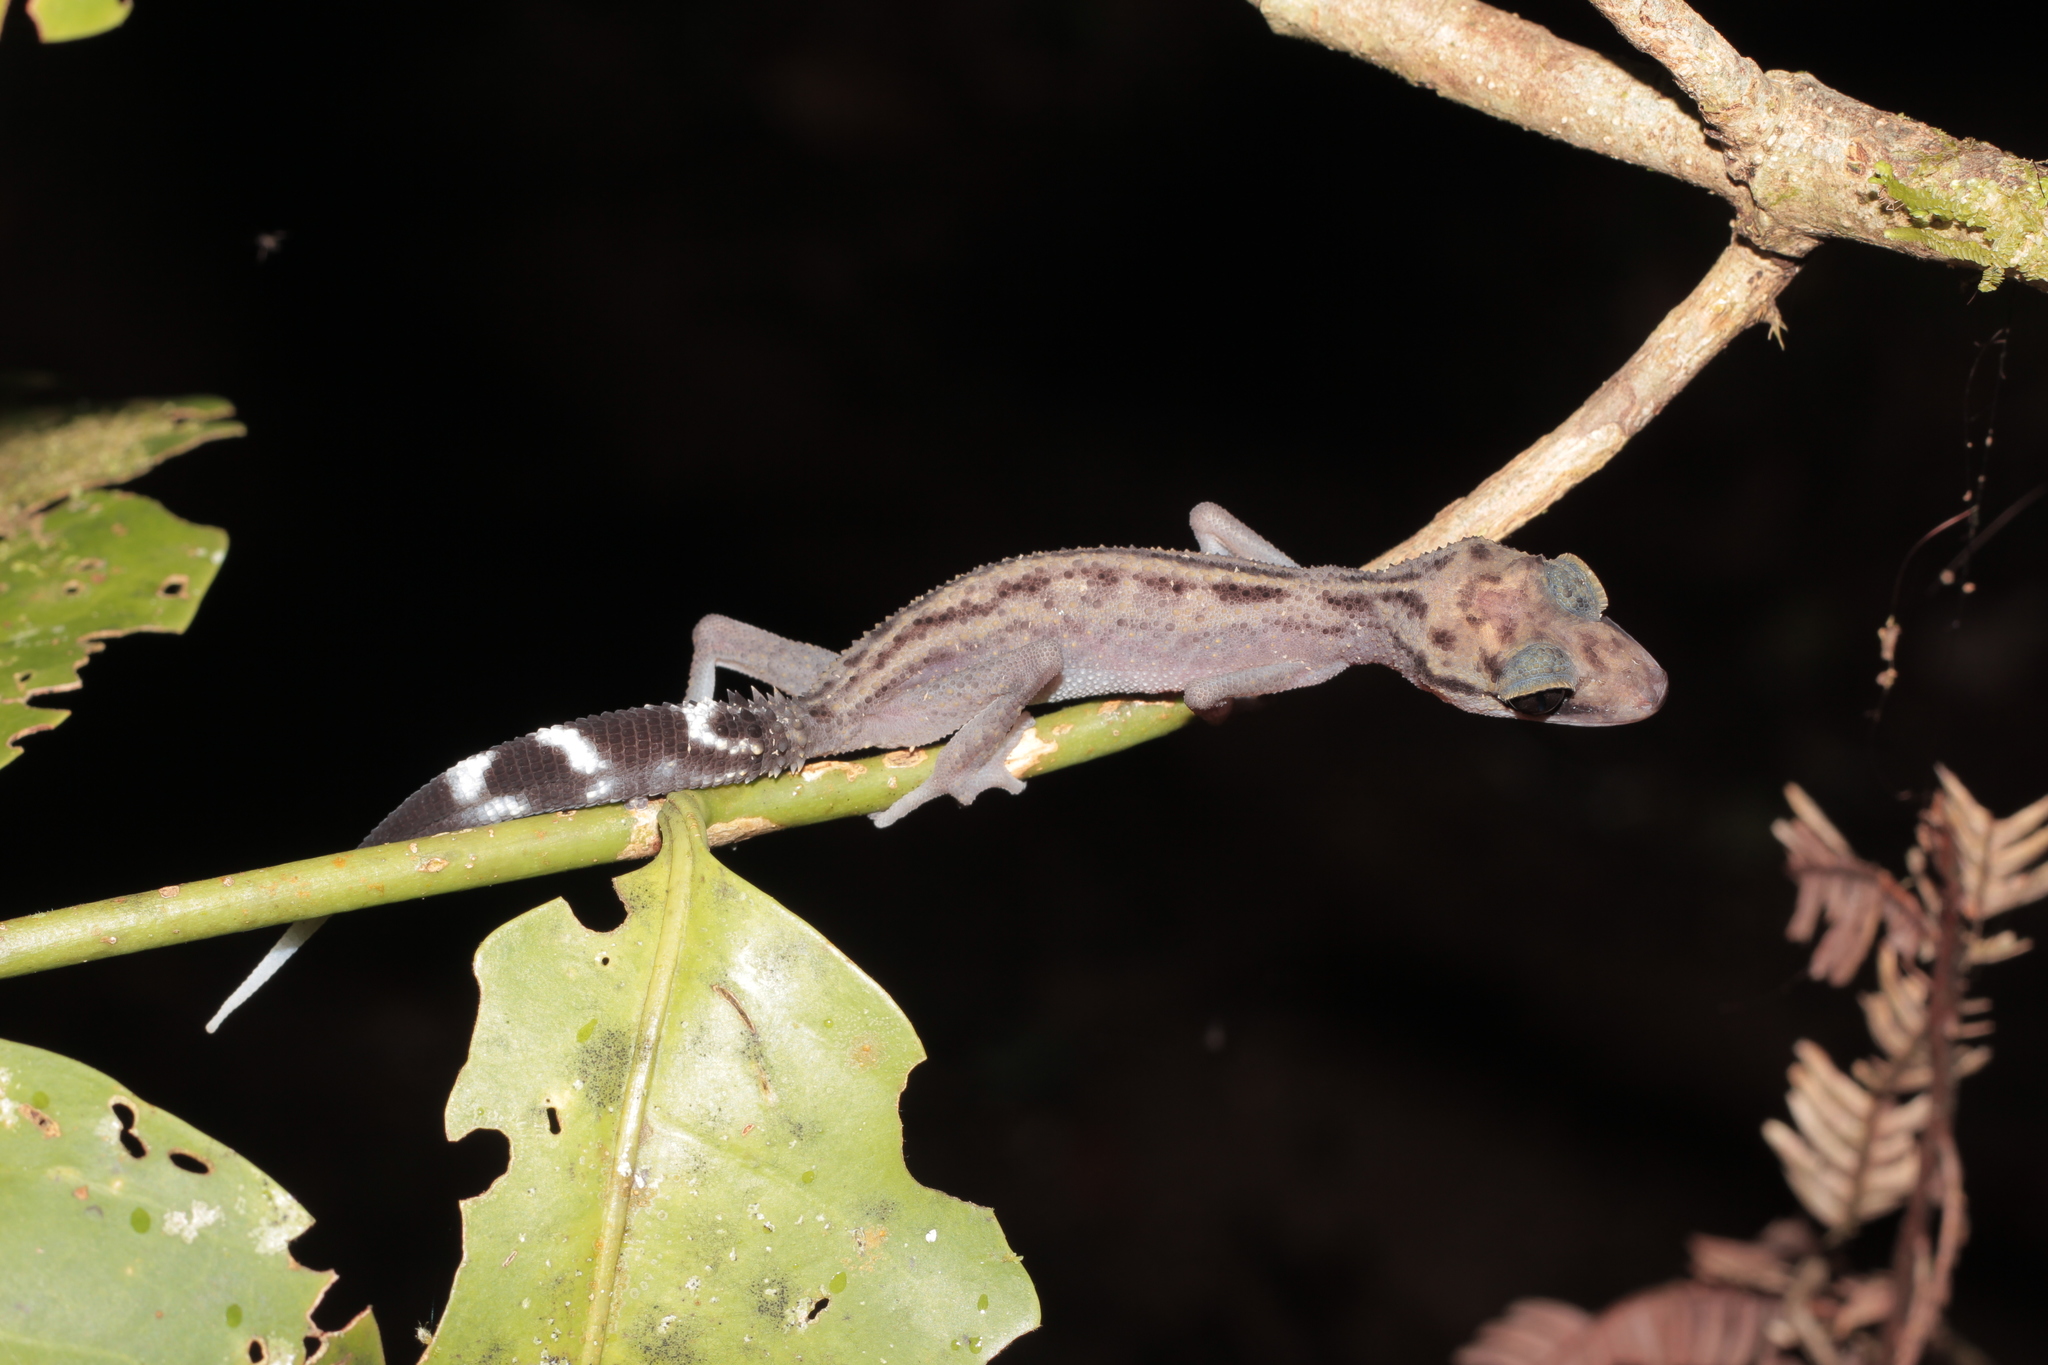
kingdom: Animalia
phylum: Chordata
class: Squamata
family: Gekkonidae
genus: Paroedura
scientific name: Paroedura gracilis
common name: Graceful madagascar ground gecko
